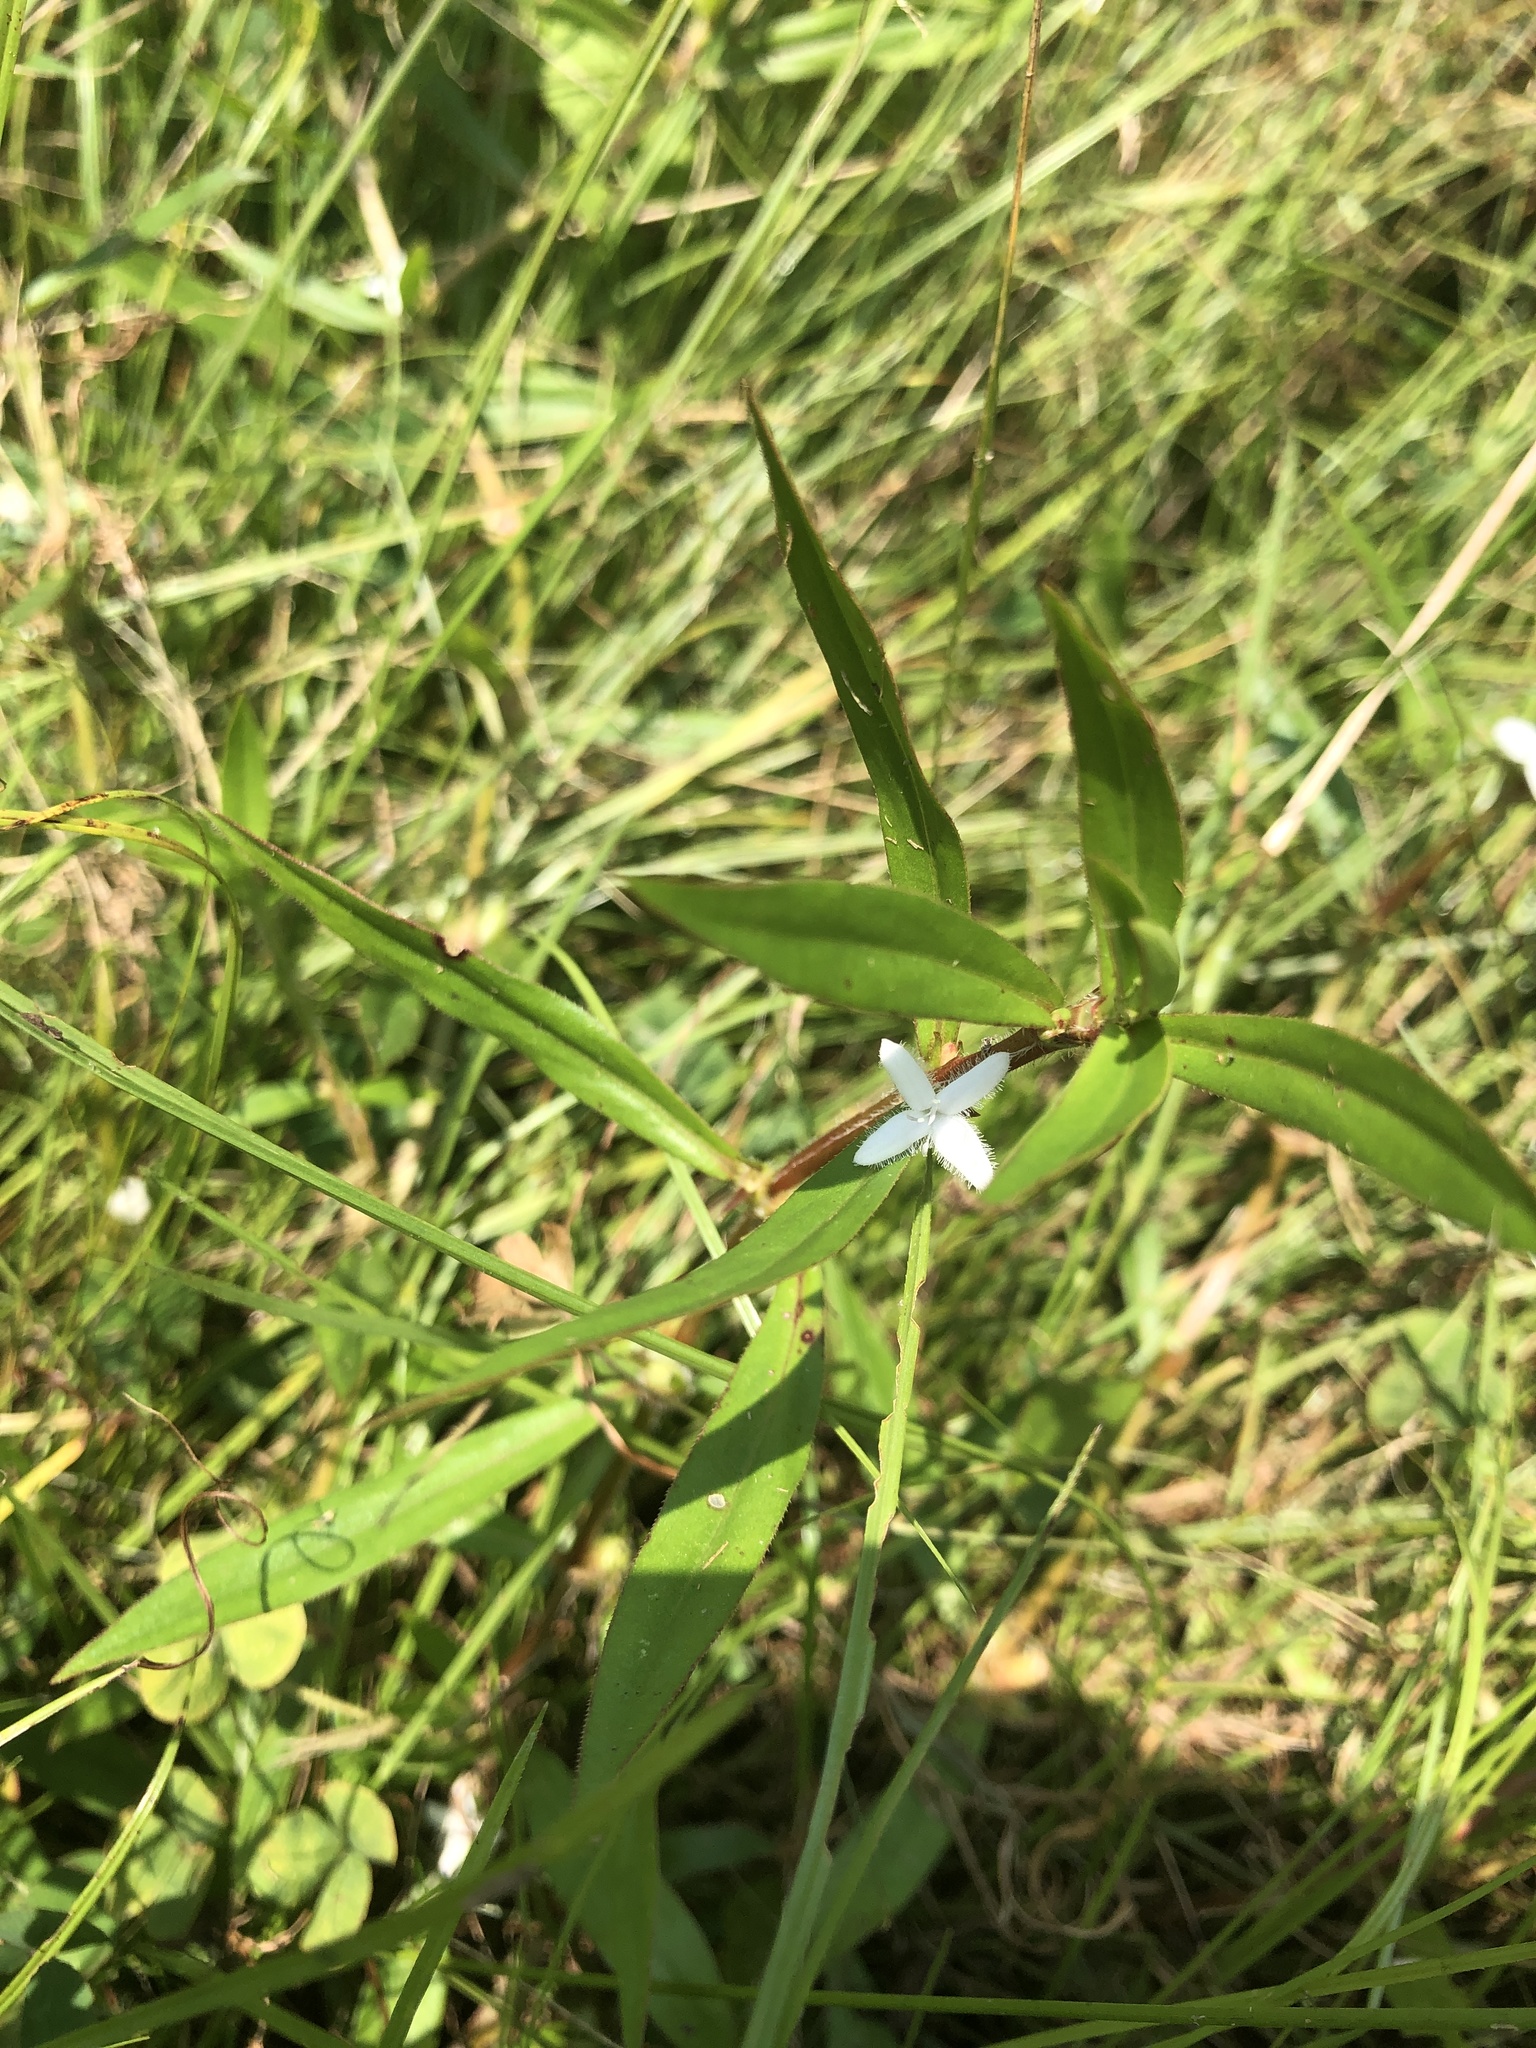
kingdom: Plantae
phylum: Tracheophyta
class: Magnoliopsida
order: Gentianales
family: Rubiaceae
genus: Diodia
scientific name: Diodia virginiana
